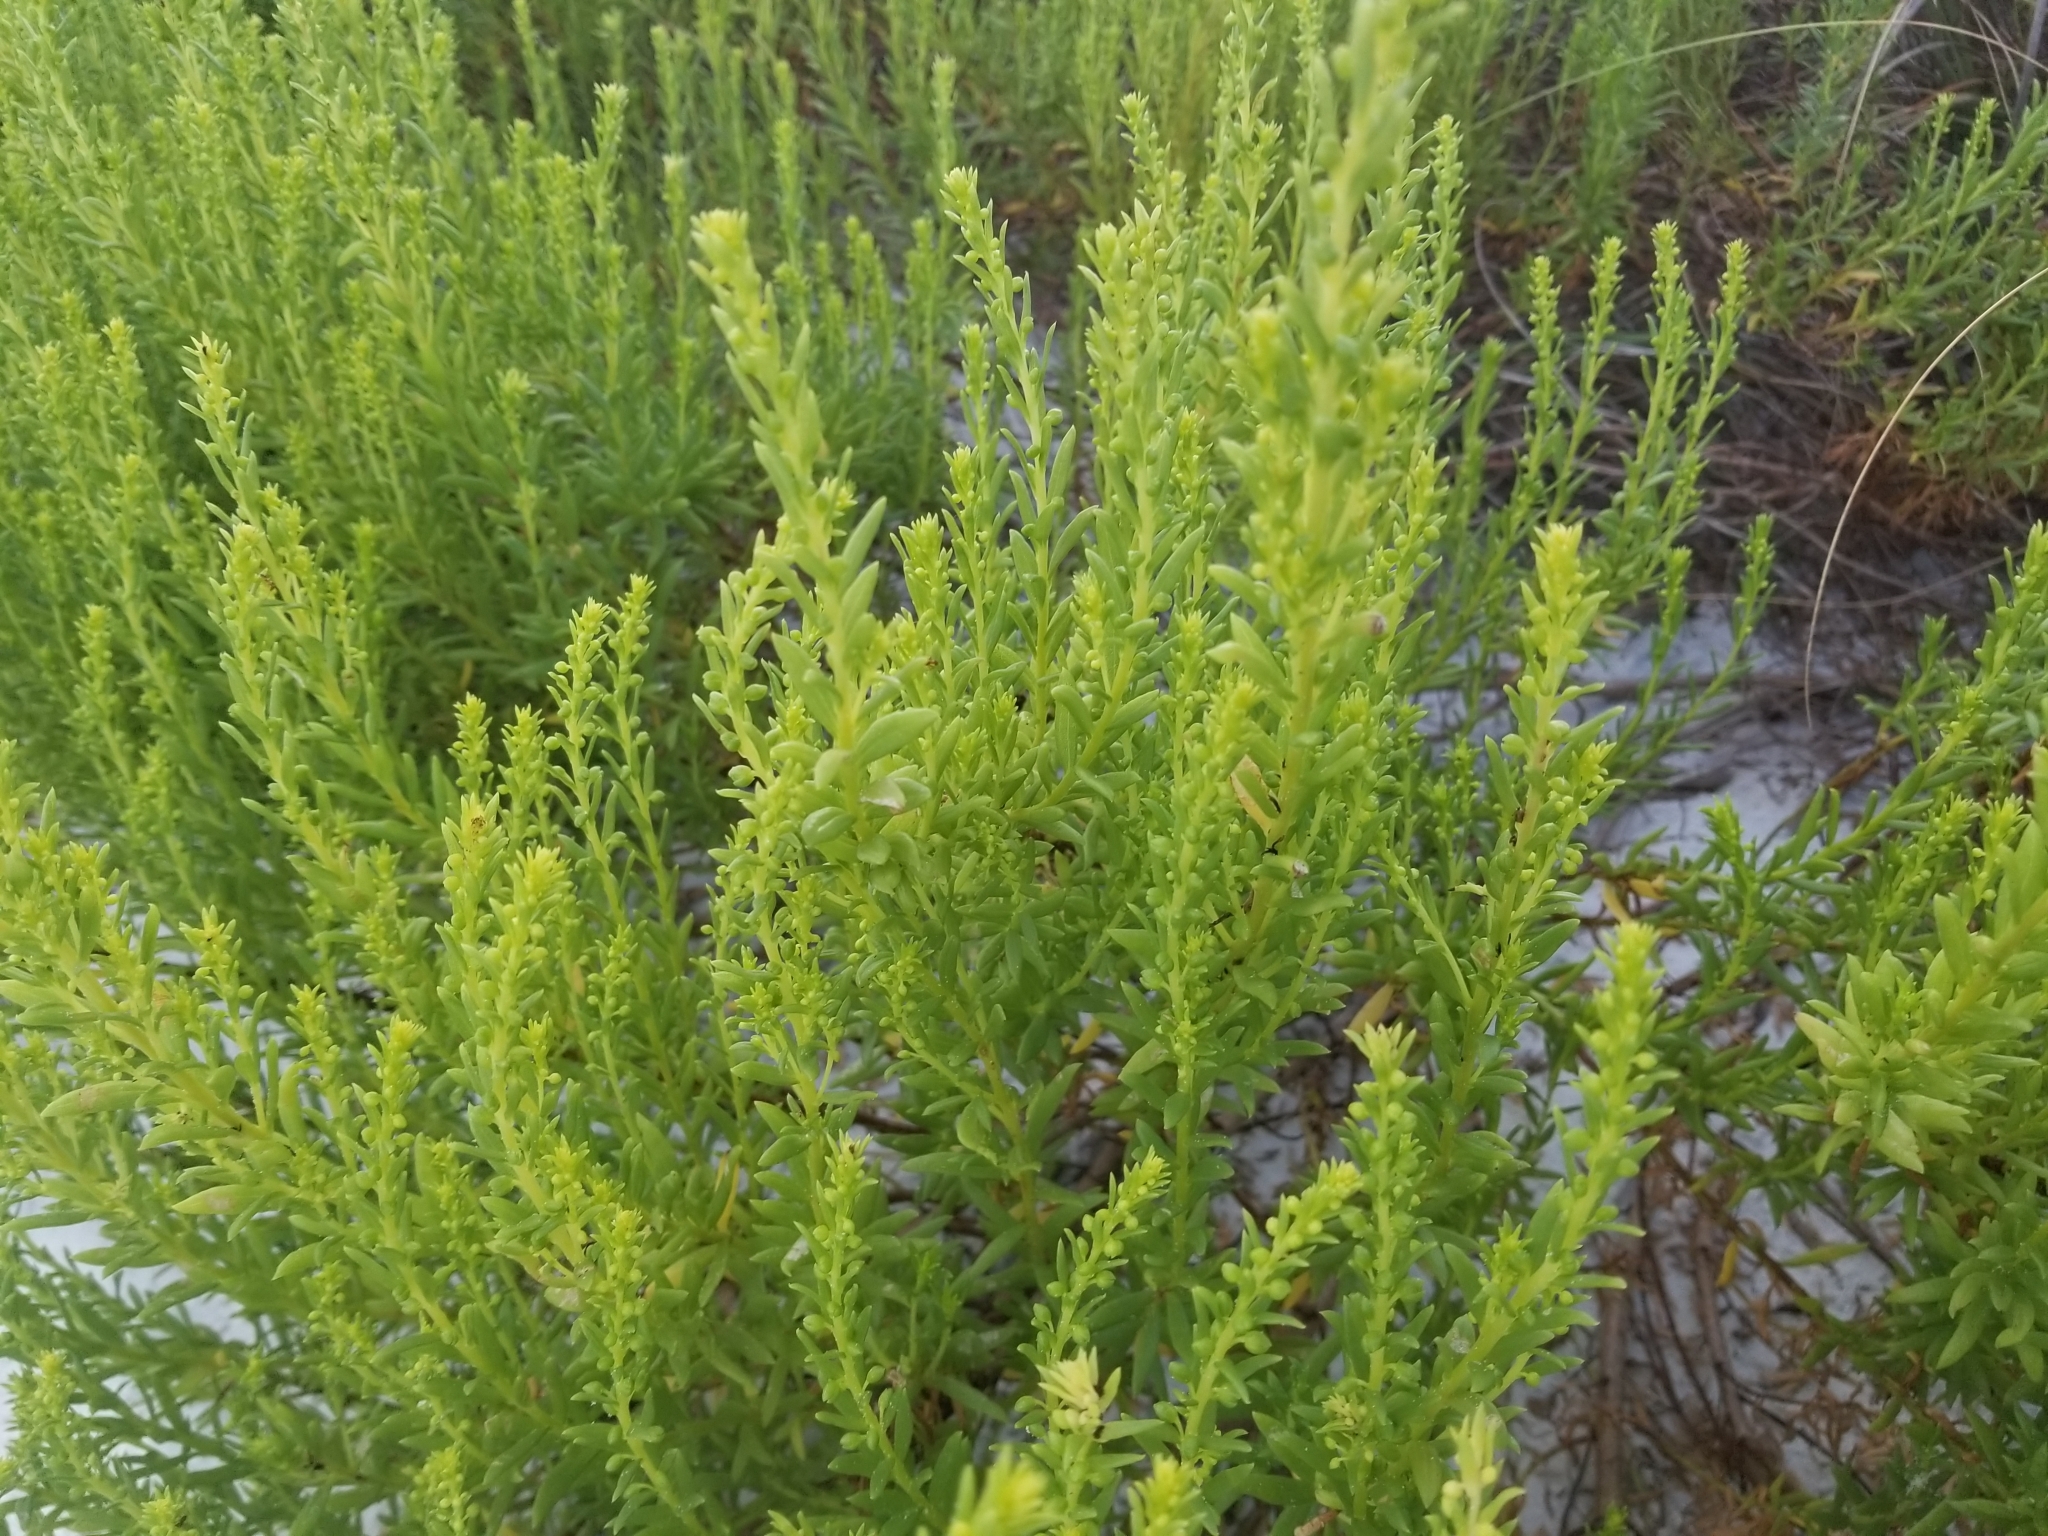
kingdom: Plantae
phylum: Tracheophyta
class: Magnoliopsida
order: Asterales
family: Asteraceae
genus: Iva
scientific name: Iva imbricata
